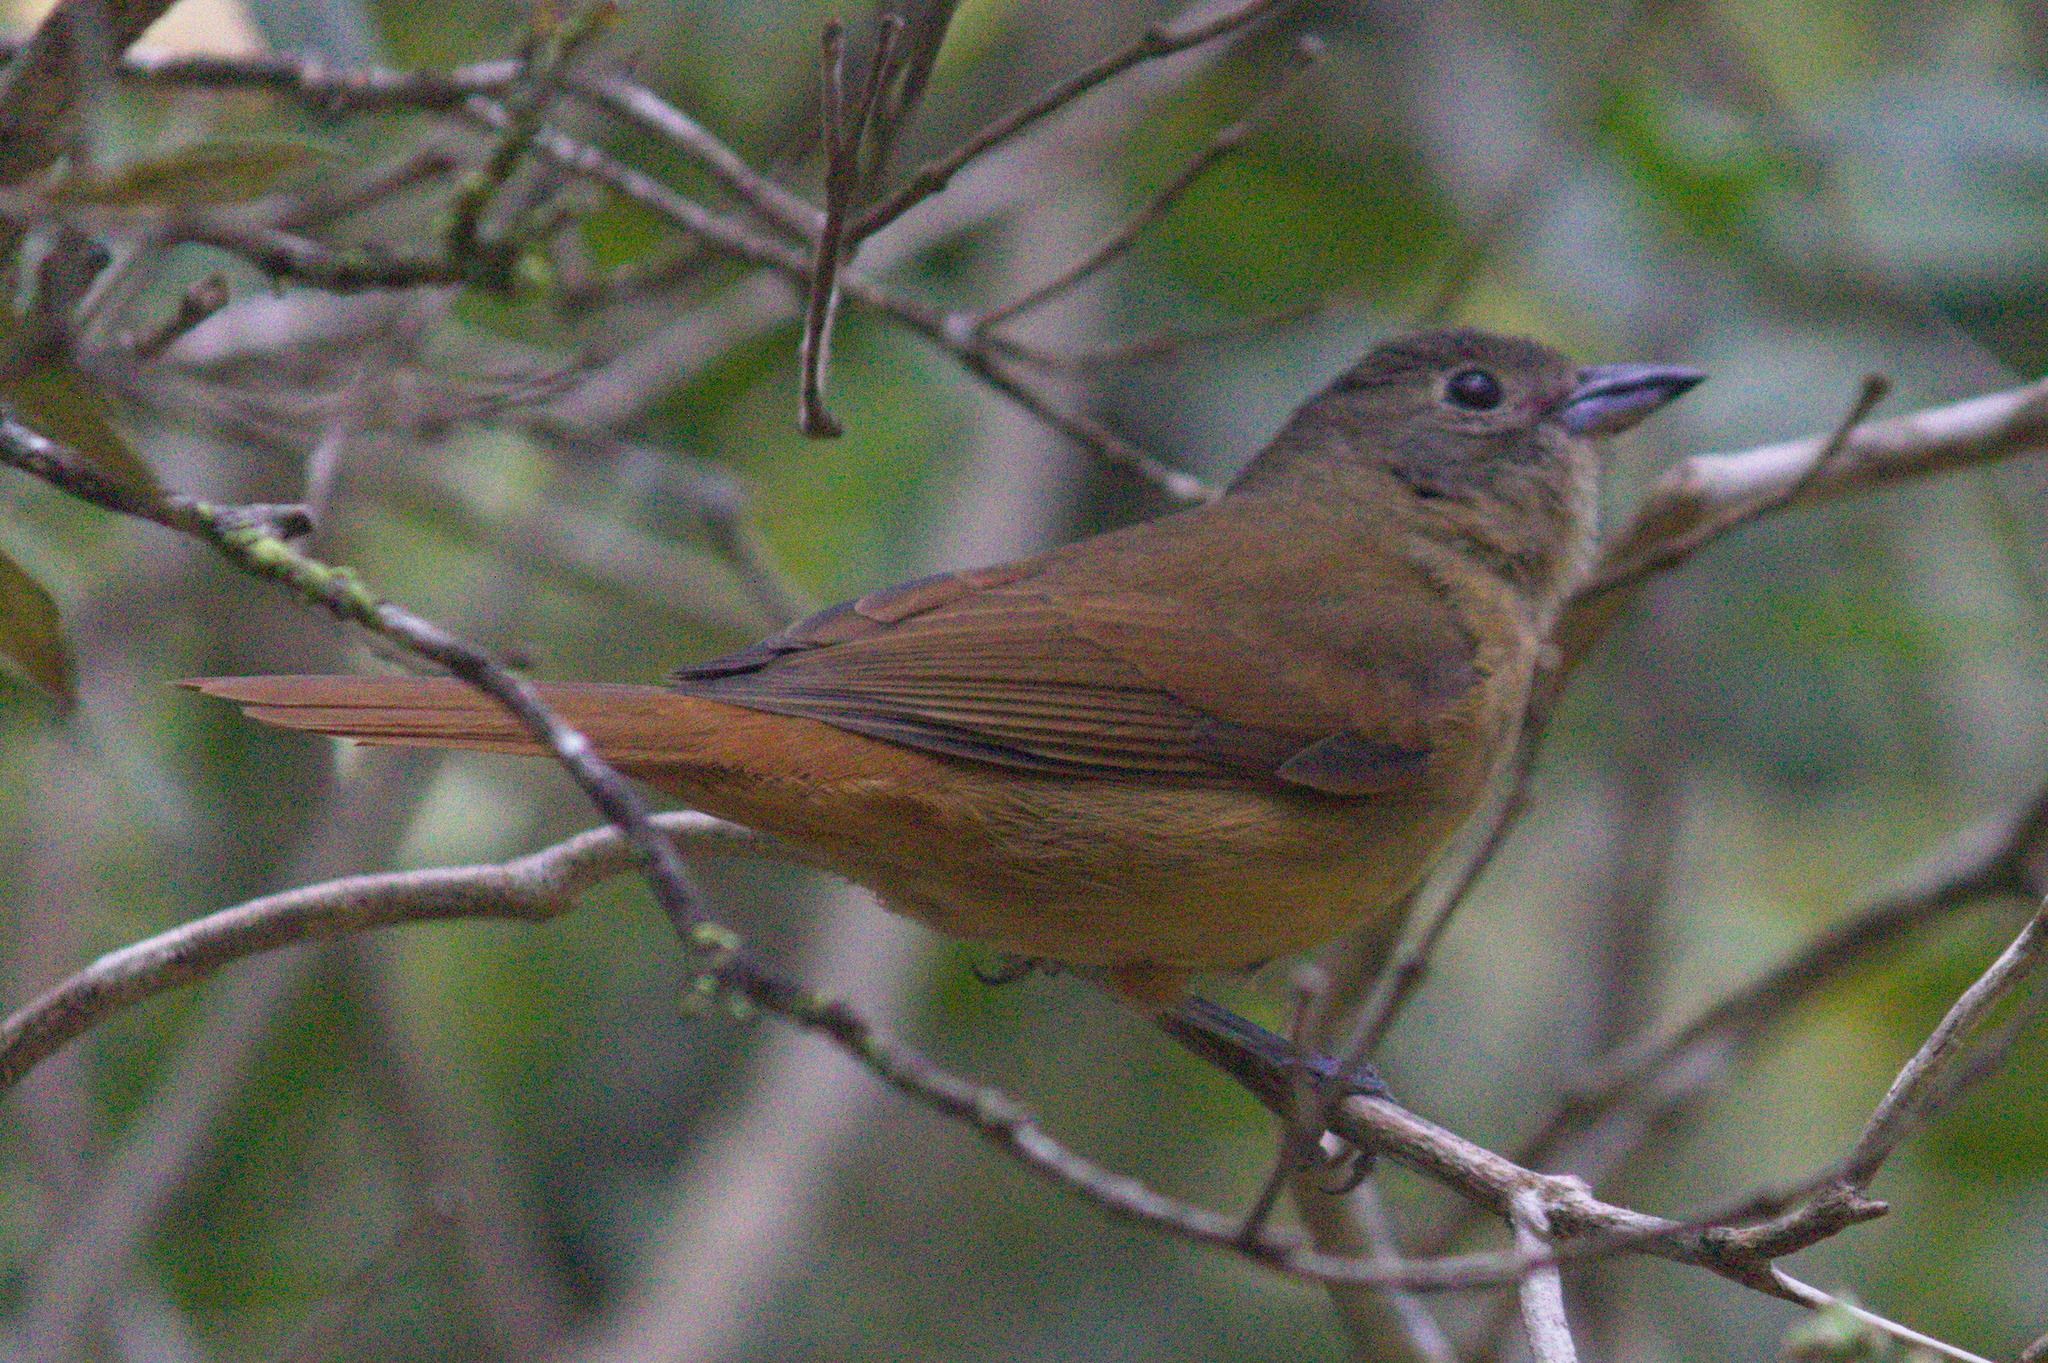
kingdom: Animalia
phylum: Chordata
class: Aves
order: Passeriformes
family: Thraupidae
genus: Tachyphonus
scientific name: Tachyphonus coronatus
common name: Ruby-crowned tanager
